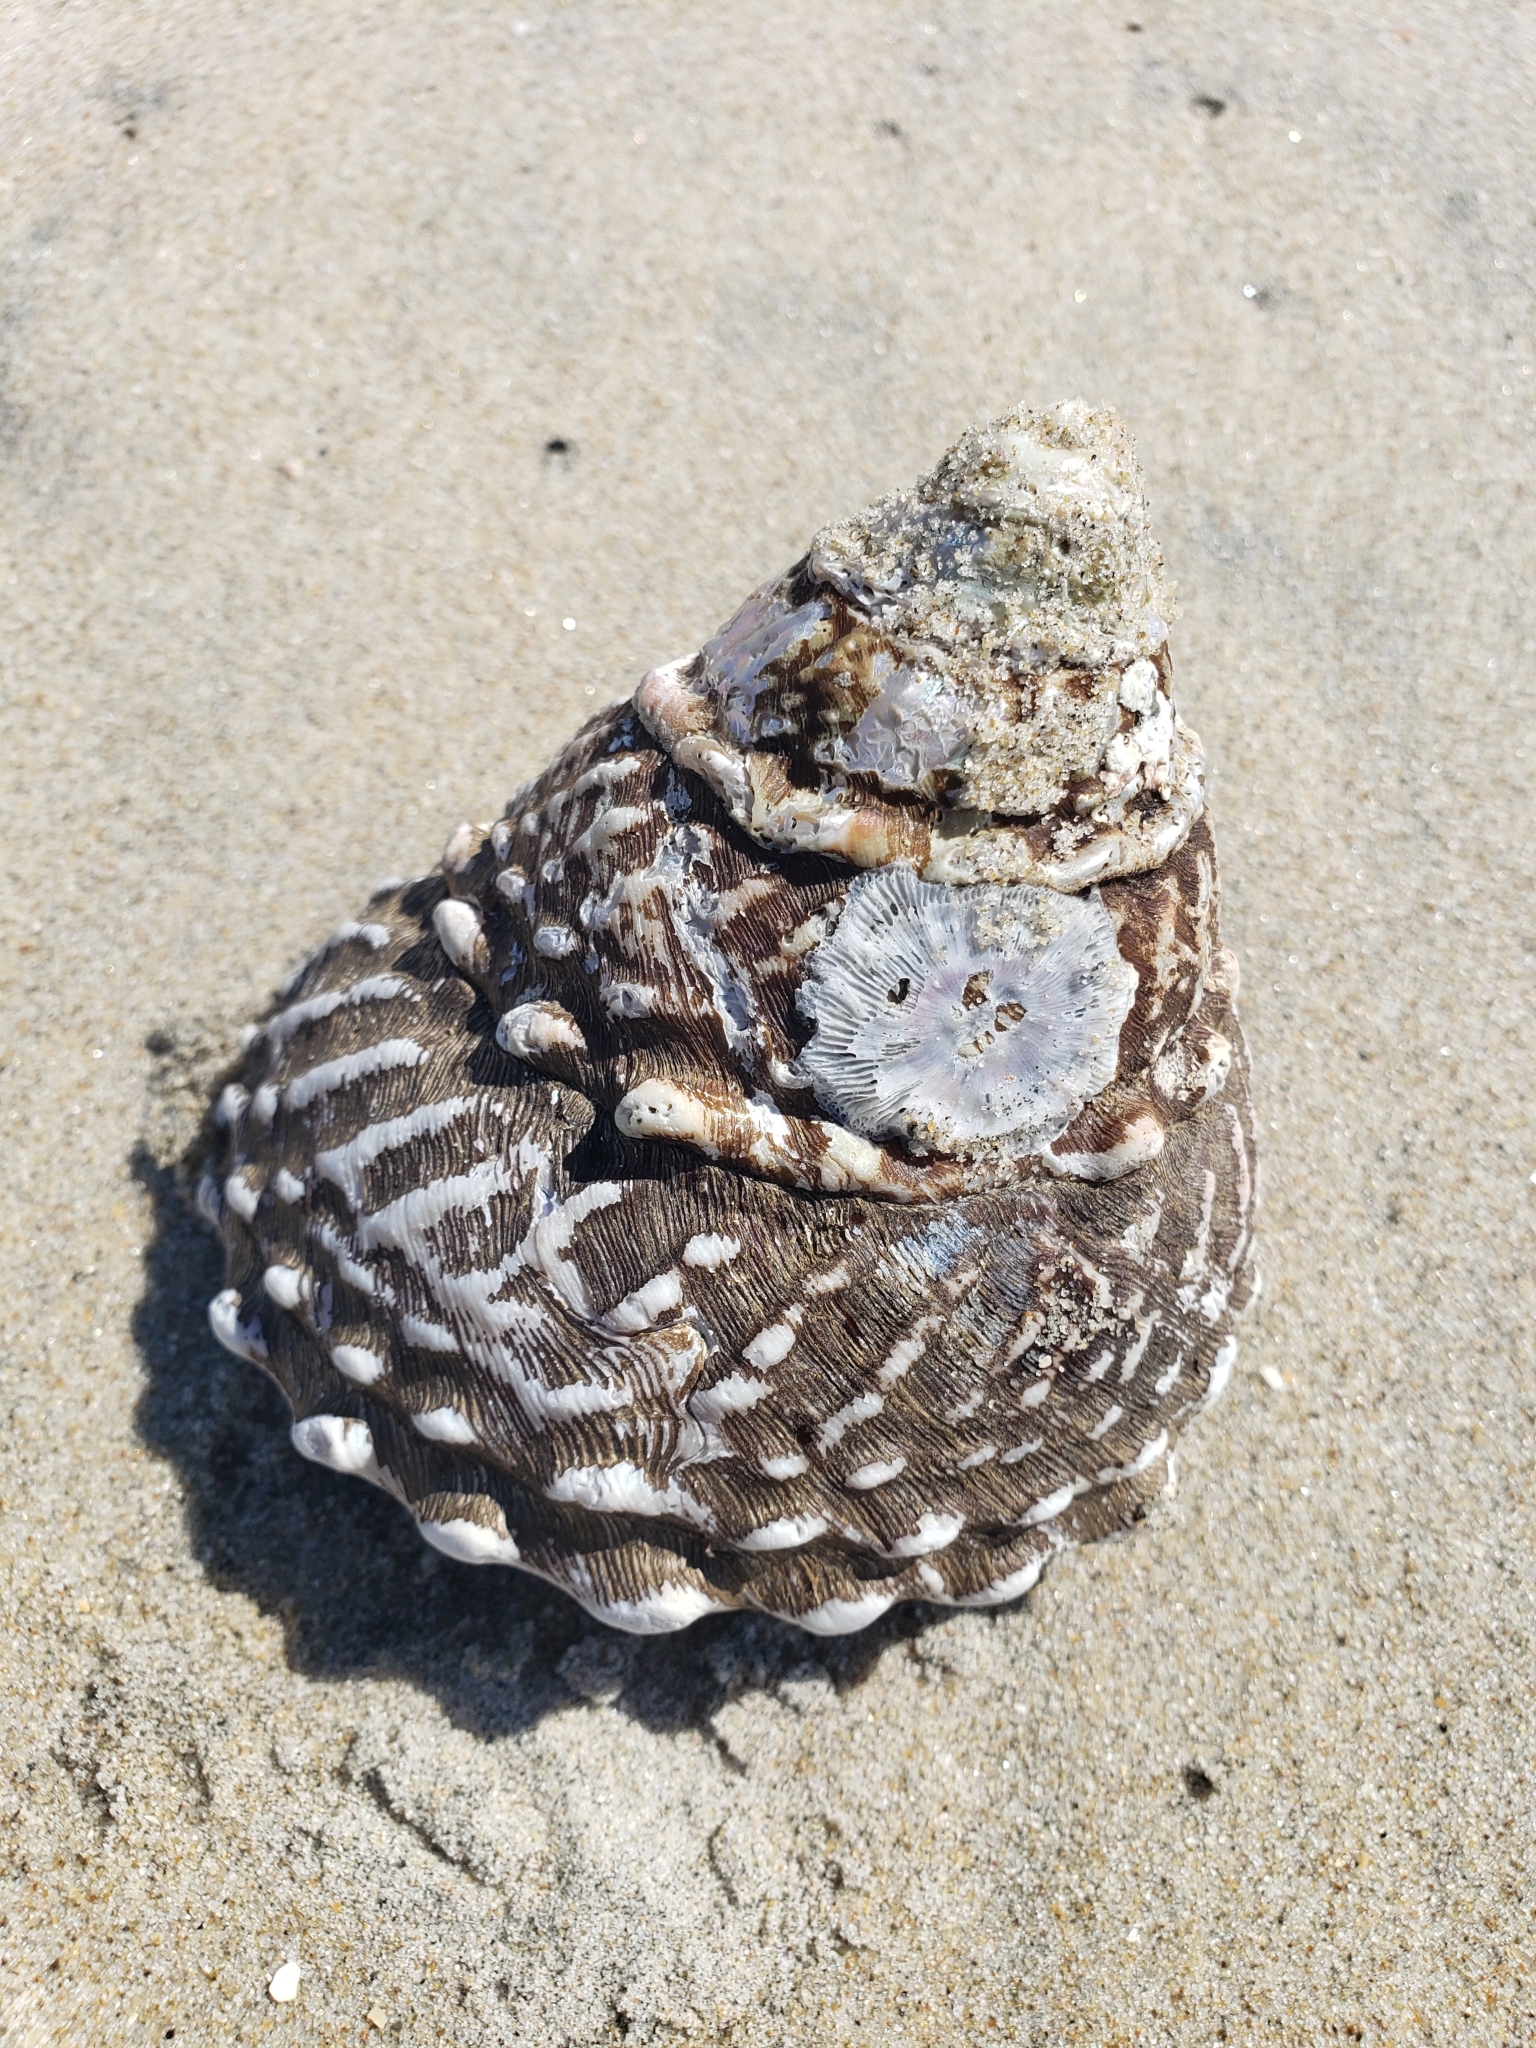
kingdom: Animalia
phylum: Mollusca
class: Gastropoda
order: Trochida
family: Turbinidae
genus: Megastraea
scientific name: Megastraea undosa
